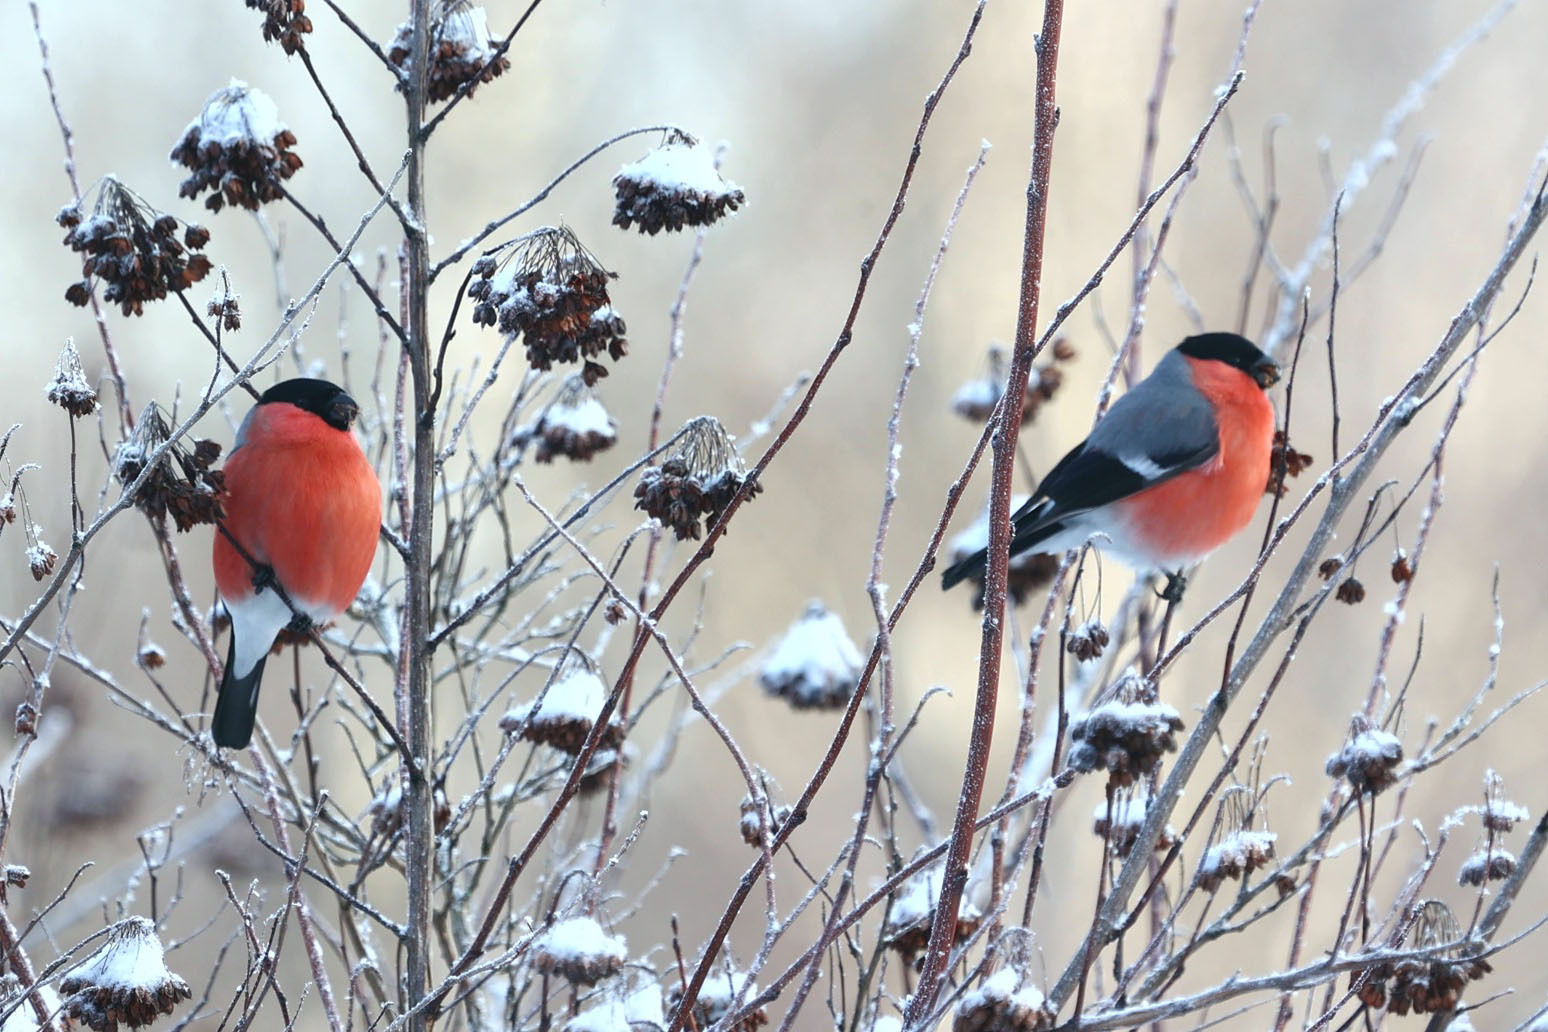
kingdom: Animalia
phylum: Chordata
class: Aves
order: Passeriformes
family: Fringillidae
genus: Pyrrhula
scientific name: Pyrrhula pyrrhula
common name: Eurasian bullfinch
